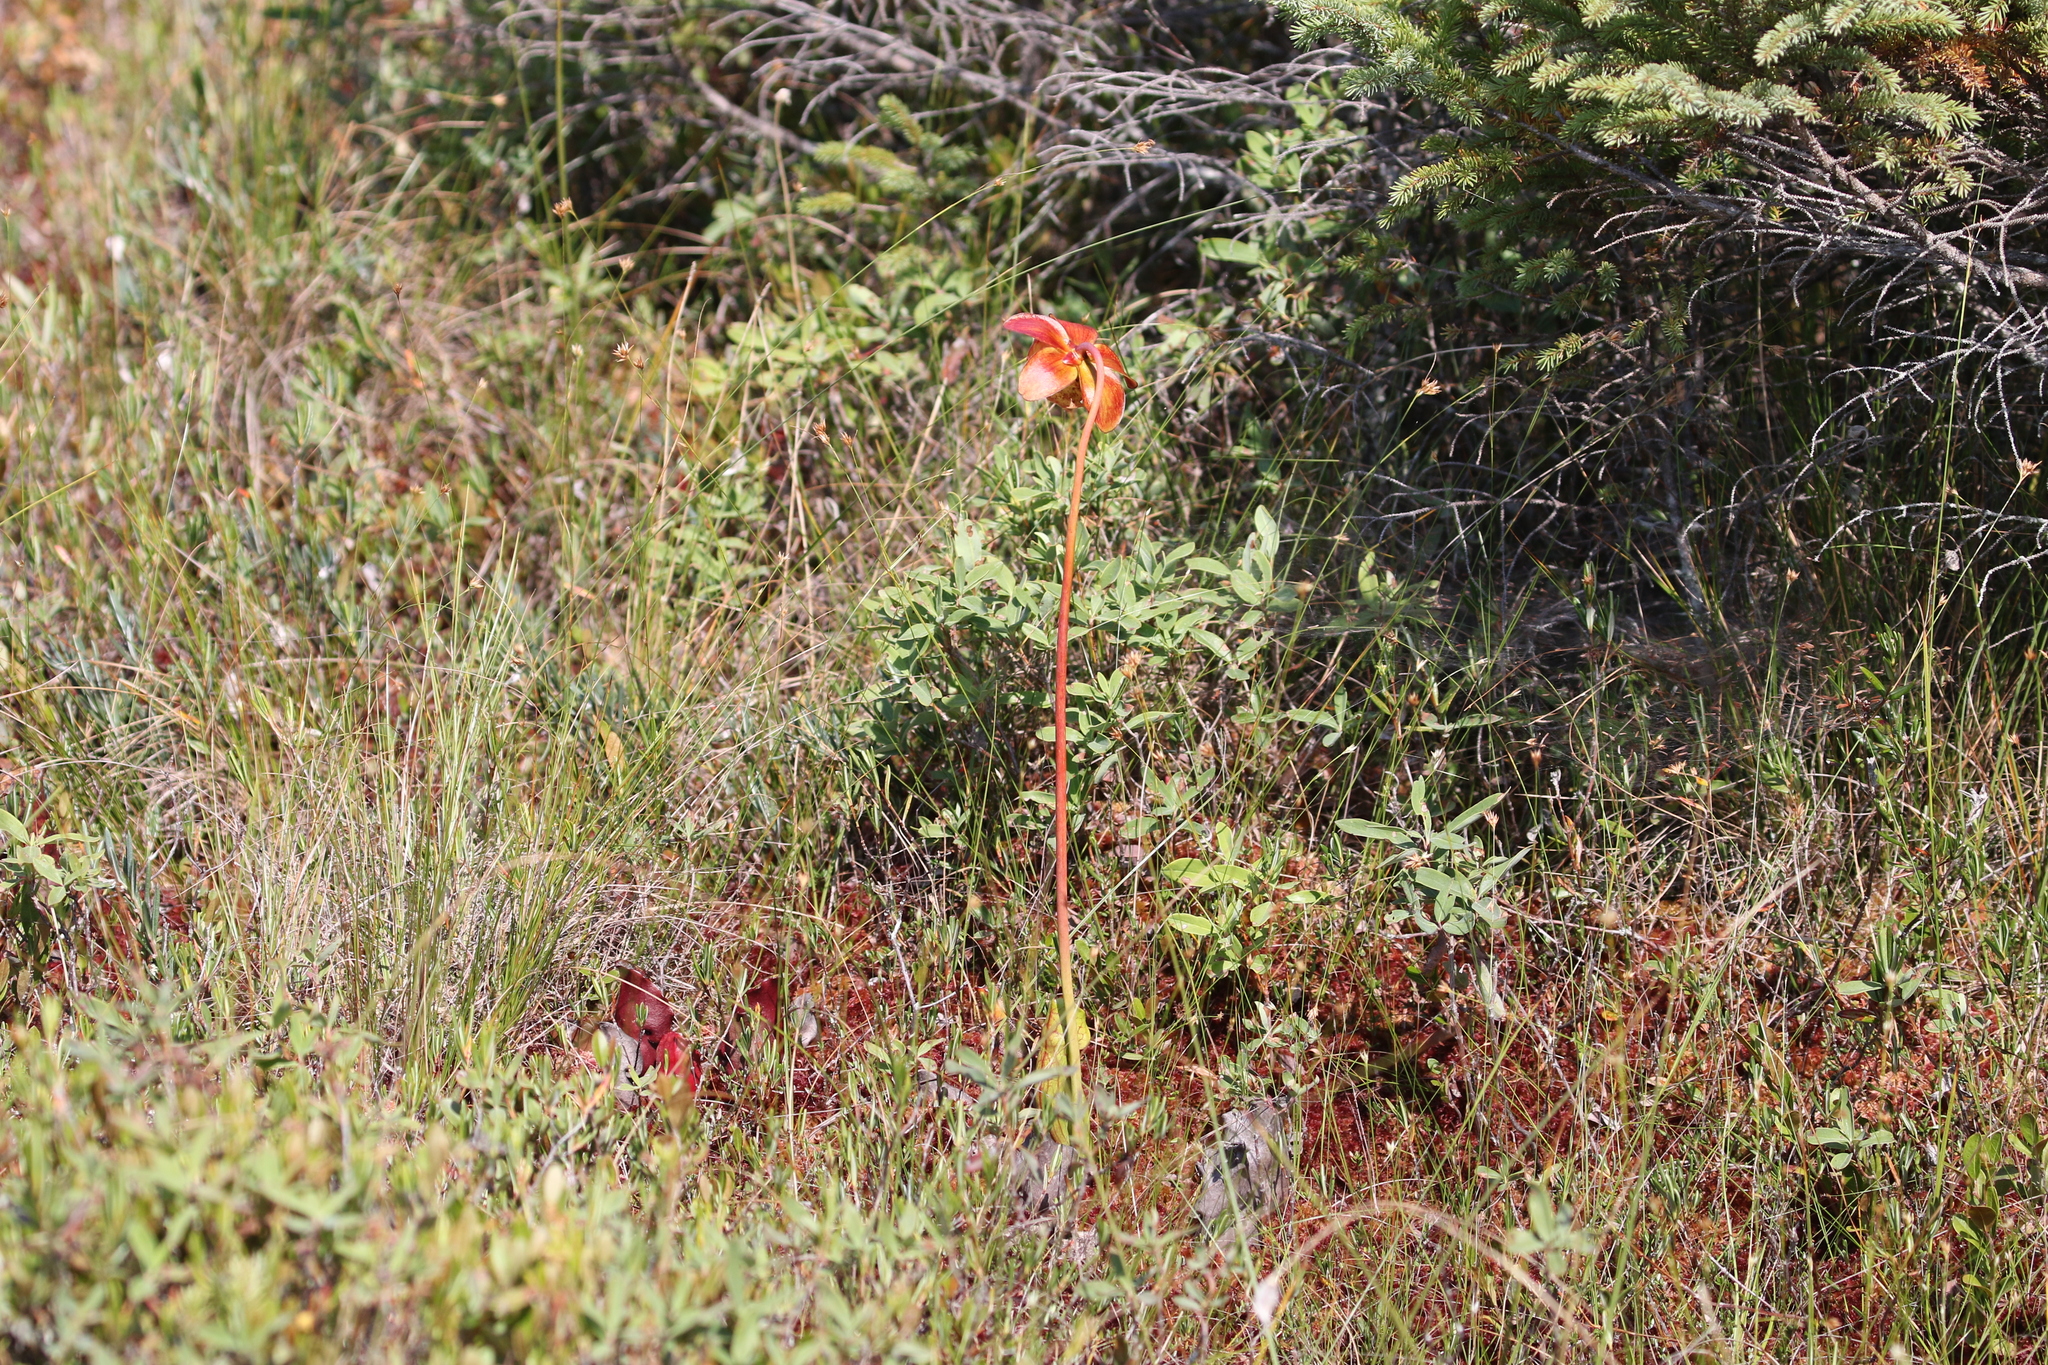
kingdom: Plantae
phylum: Tracheophyta
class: Magnoliopsida
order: Ericales
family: Sarraceniaceae
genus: Sarracenia
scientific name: Sarracenia purpurea
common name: Pitcherplant
